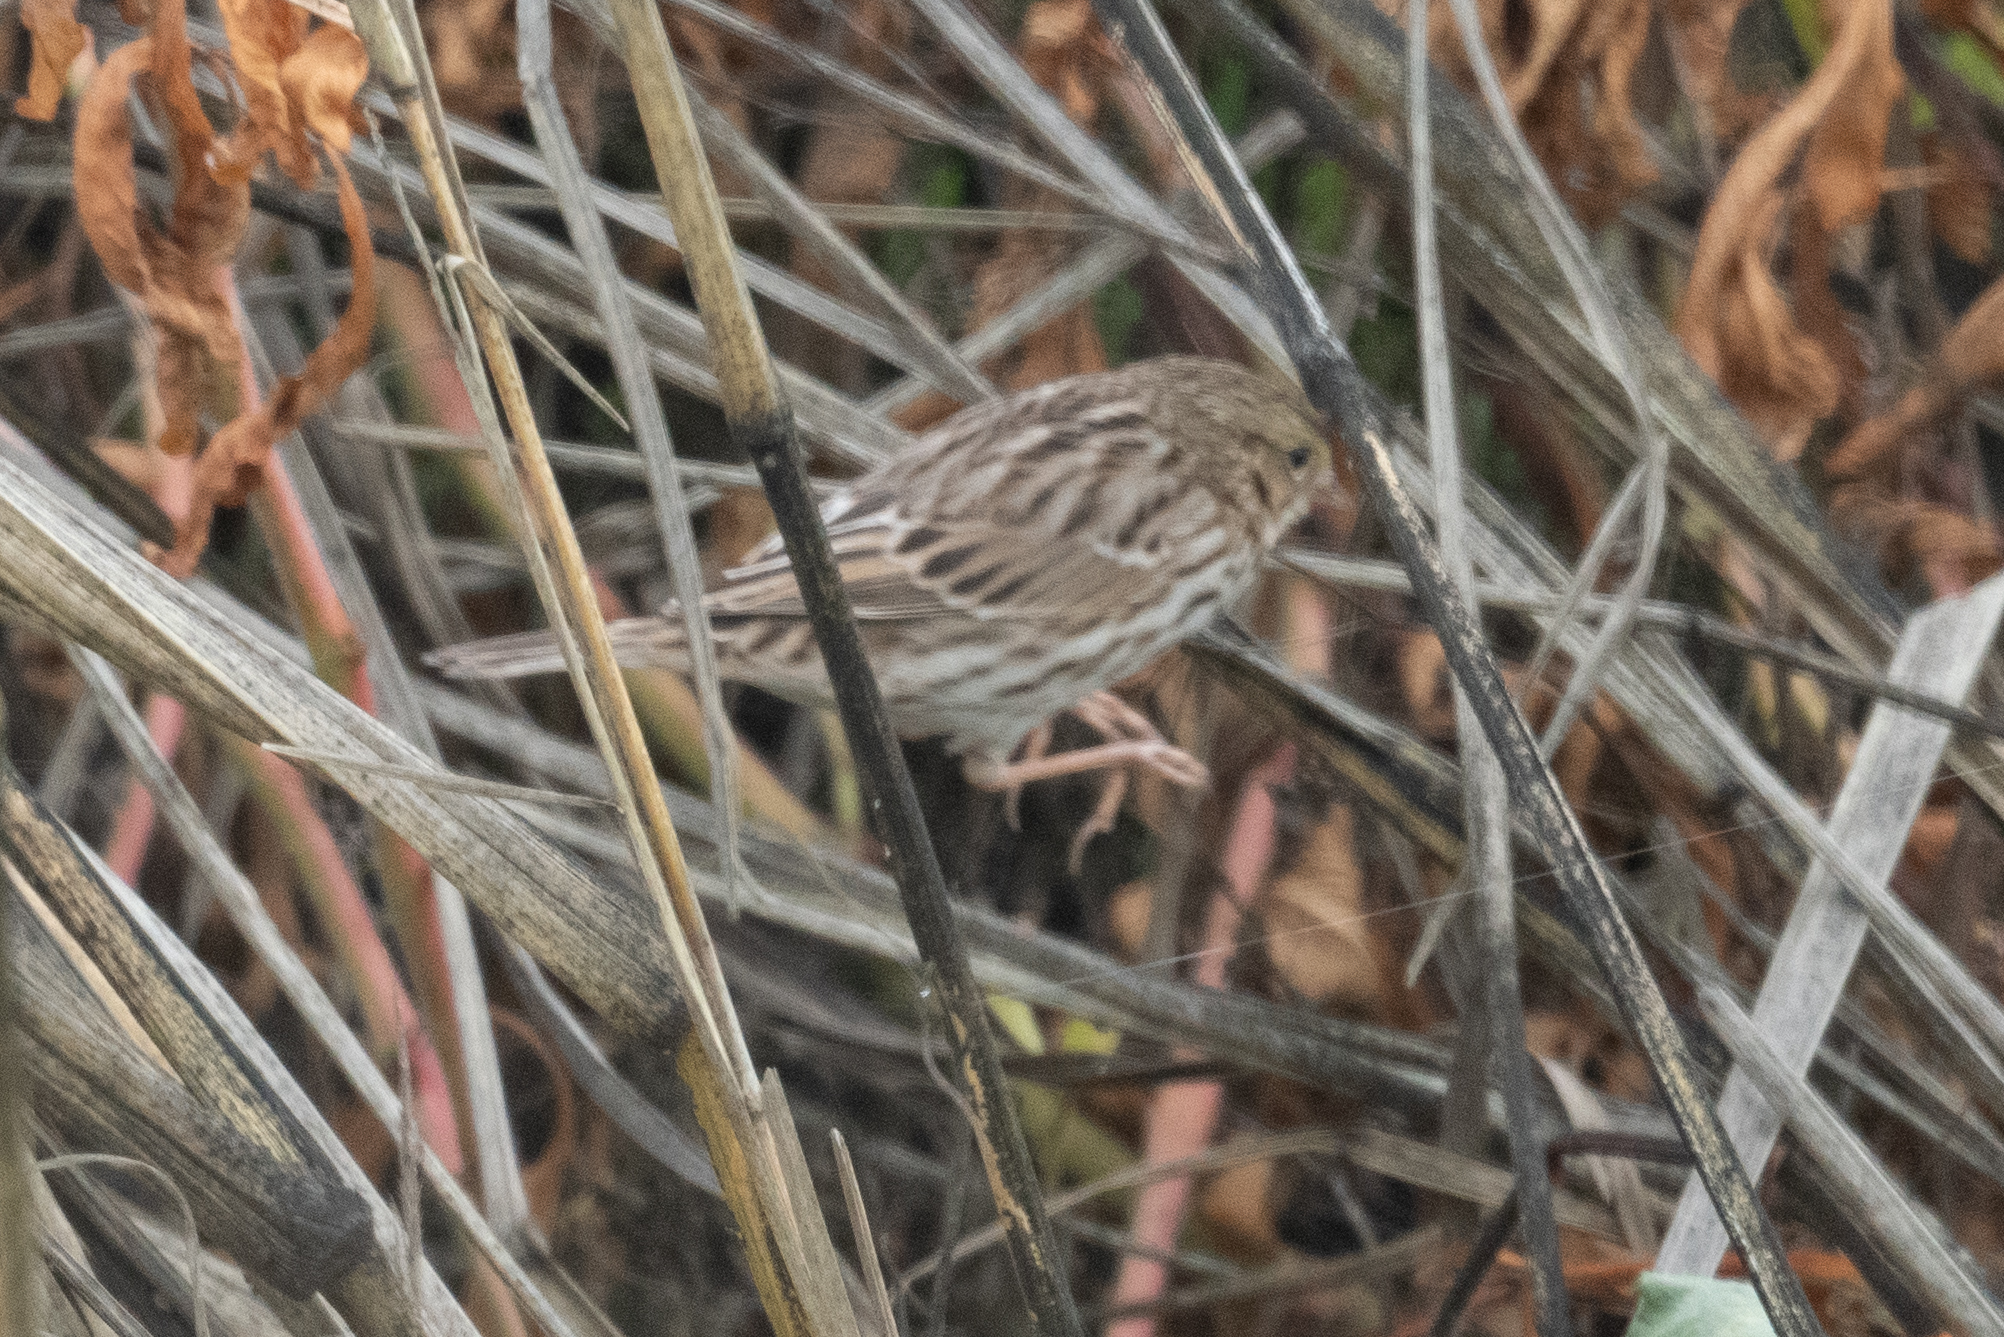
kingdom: Animalia
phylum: Chordata
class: Aves
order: Passeriformes
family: Passerellidae
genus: Passerculus
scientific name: Passerculus sandwichensis
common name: Savannah sparrow
